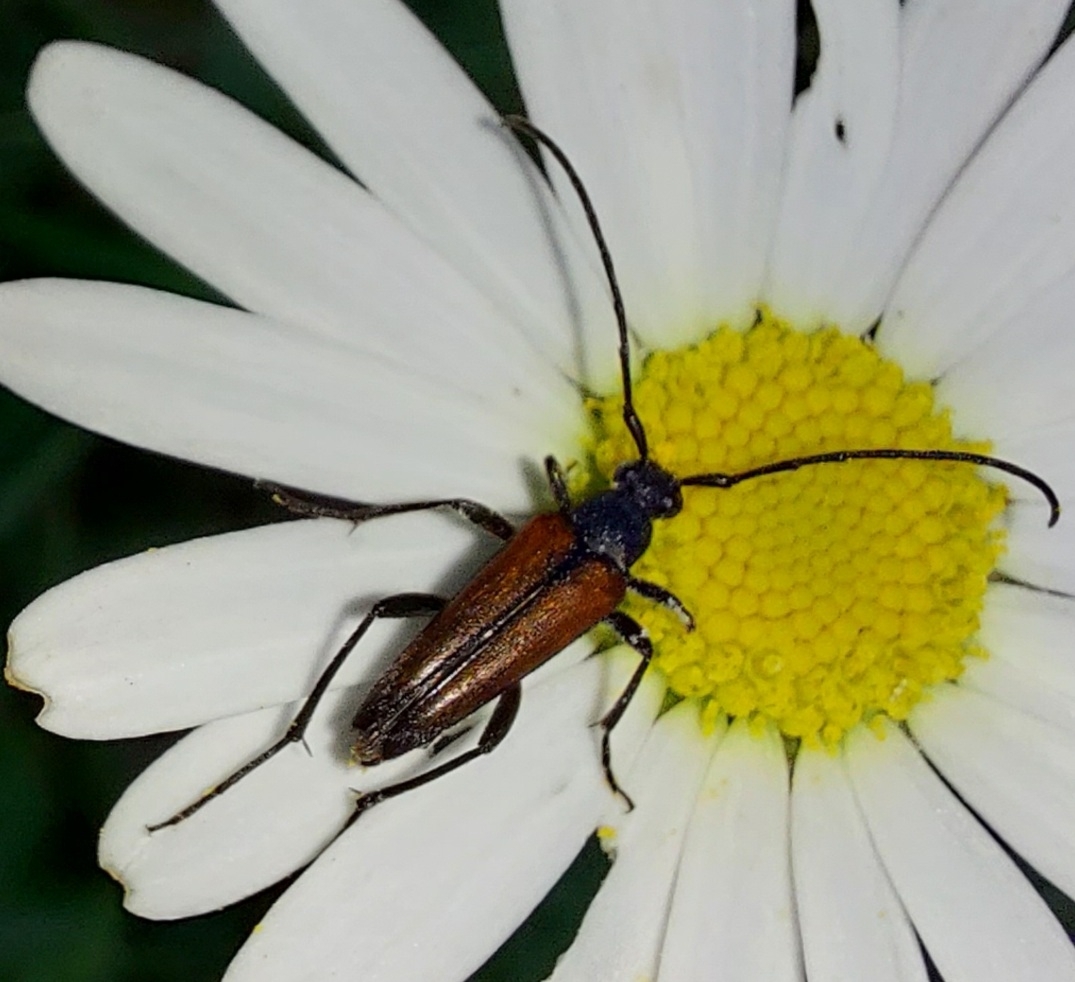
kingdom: Animalia
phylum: Arthropoda
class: Insecta
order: Coleoptera
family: Cerambycidae
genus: Stenurella
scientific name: Stenurella melanura
